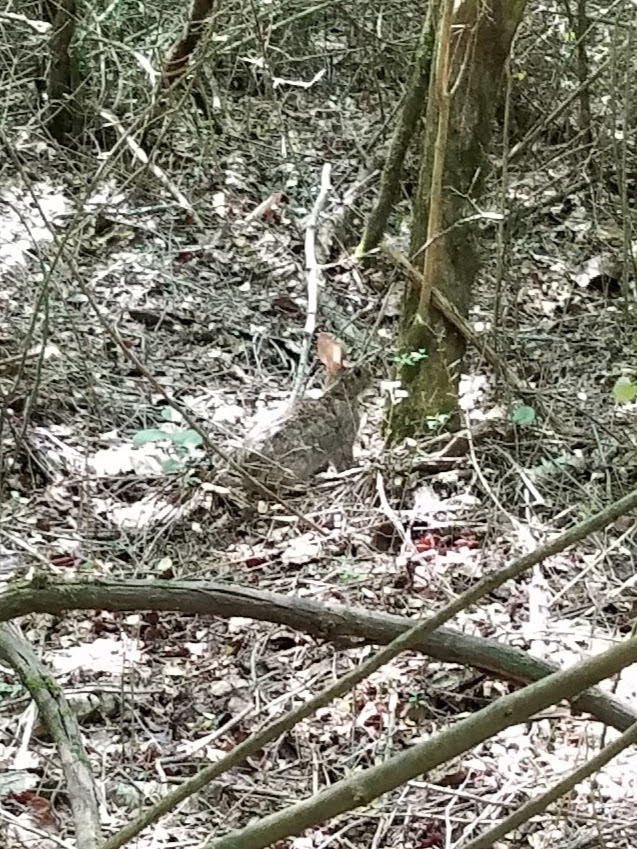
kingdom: Animalia
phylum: Chordata
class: Mammalia
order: Lagomorpha
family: Leporidae
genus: Sylvilagus
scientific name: Sylvilagus floridanus
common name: Eastern cottontail
